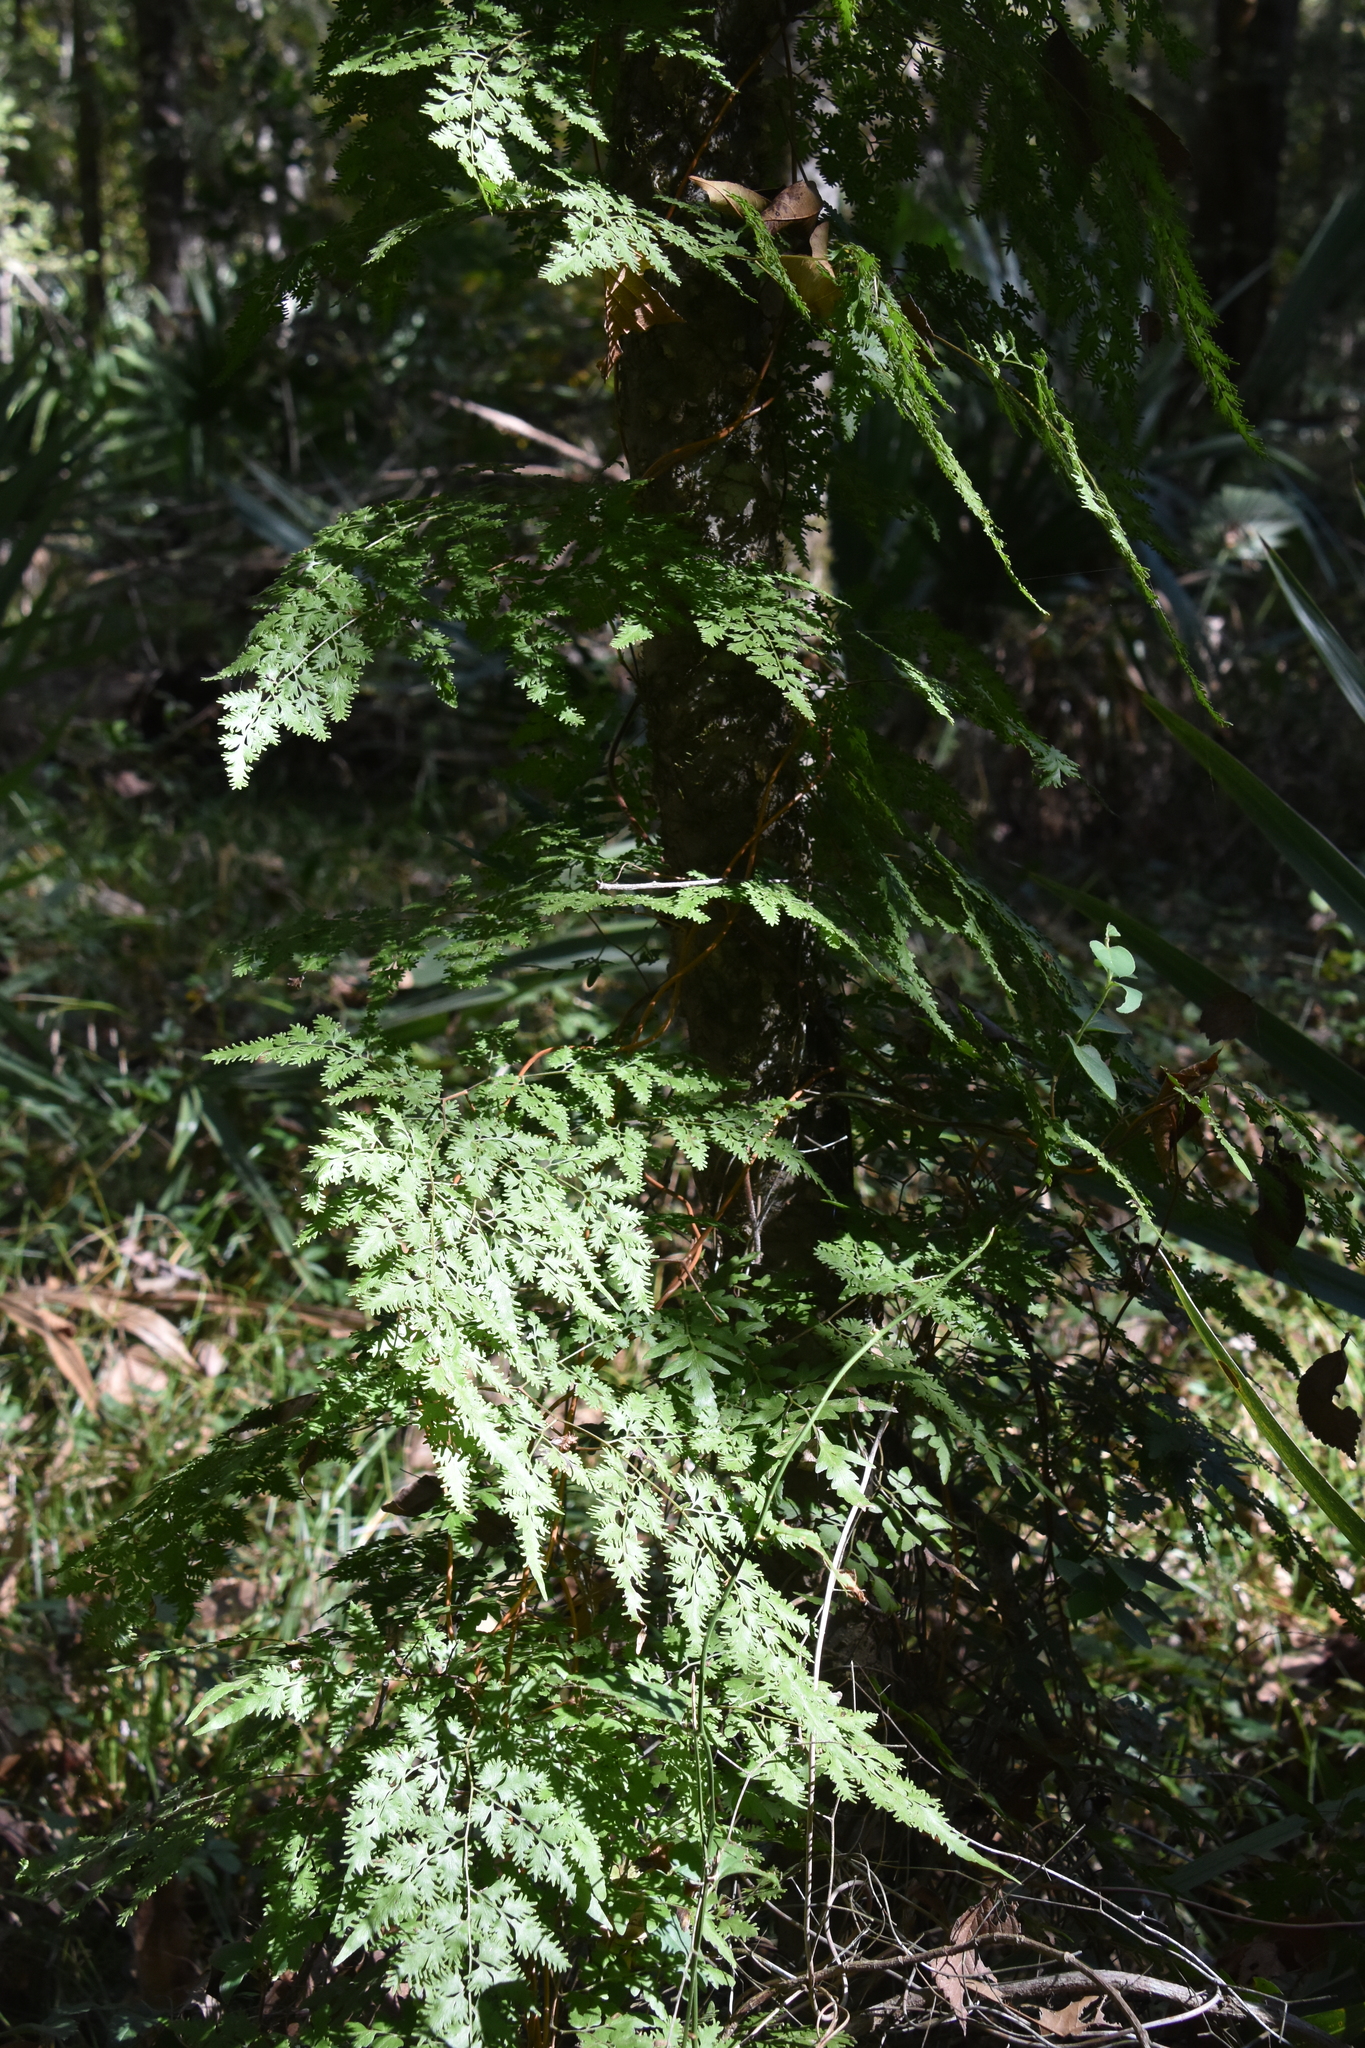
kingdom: Plantae
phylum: Tracheophyta
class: Polypodiopsida
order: Schizaeales
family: Lygodiaceae
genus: Lygodium
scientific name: Lygodium japonicum
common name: Japanese climbing fern
